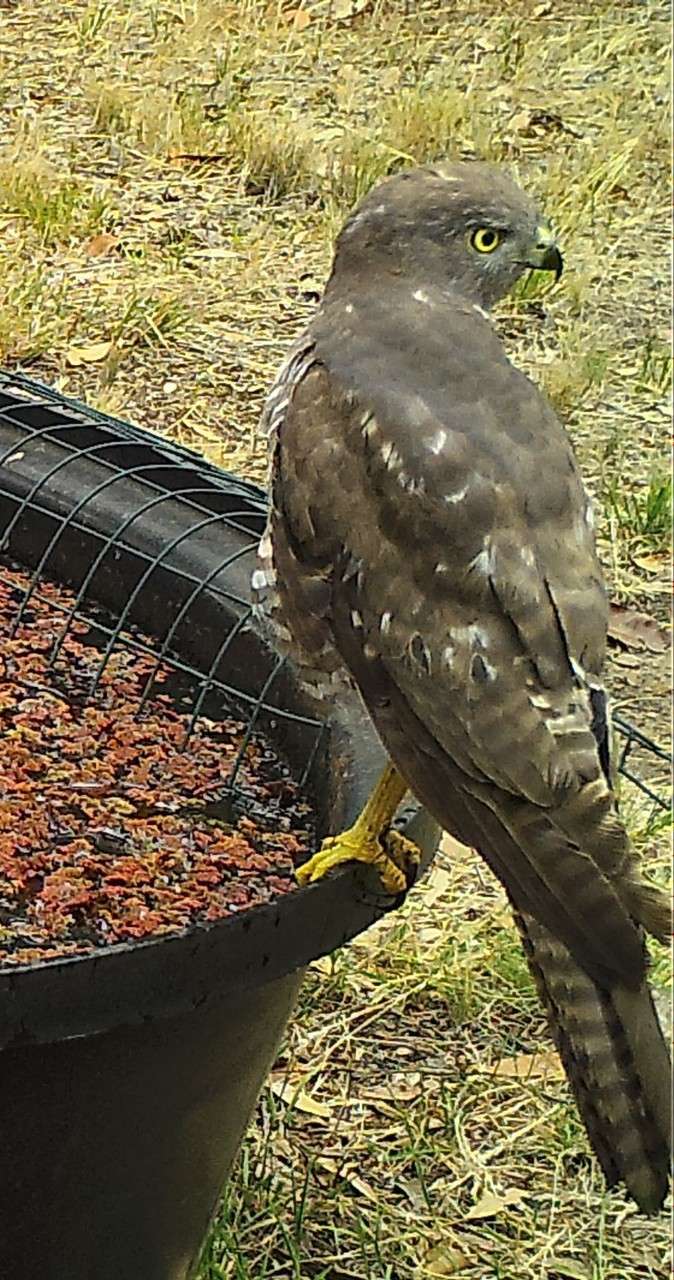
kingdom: Animalia
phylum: Chordata
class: Aves
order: Accipitriformes
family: Accipitridae
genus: Accipiter
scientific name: Accipiter fasciatus
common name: Brown goshawk
